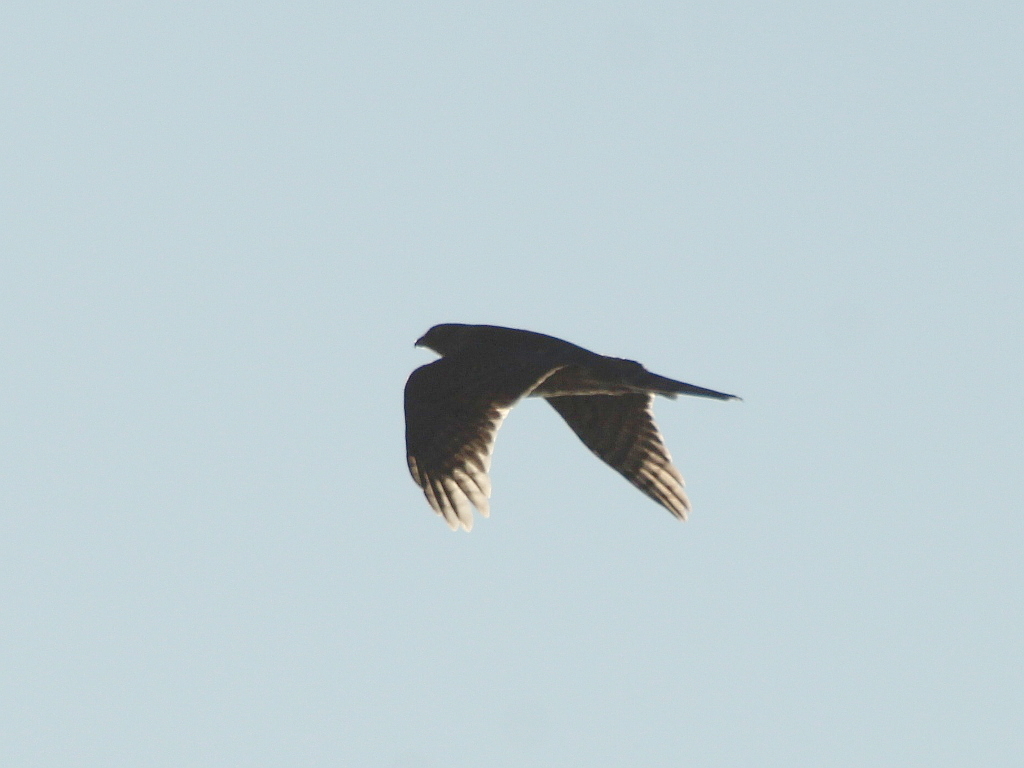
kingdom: Animalia
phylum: Chordata
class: Aves
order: Accipitriformes
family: Accipitridae
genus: Accipiter
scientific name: Accipiter gentilis
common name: Northern goshawk
